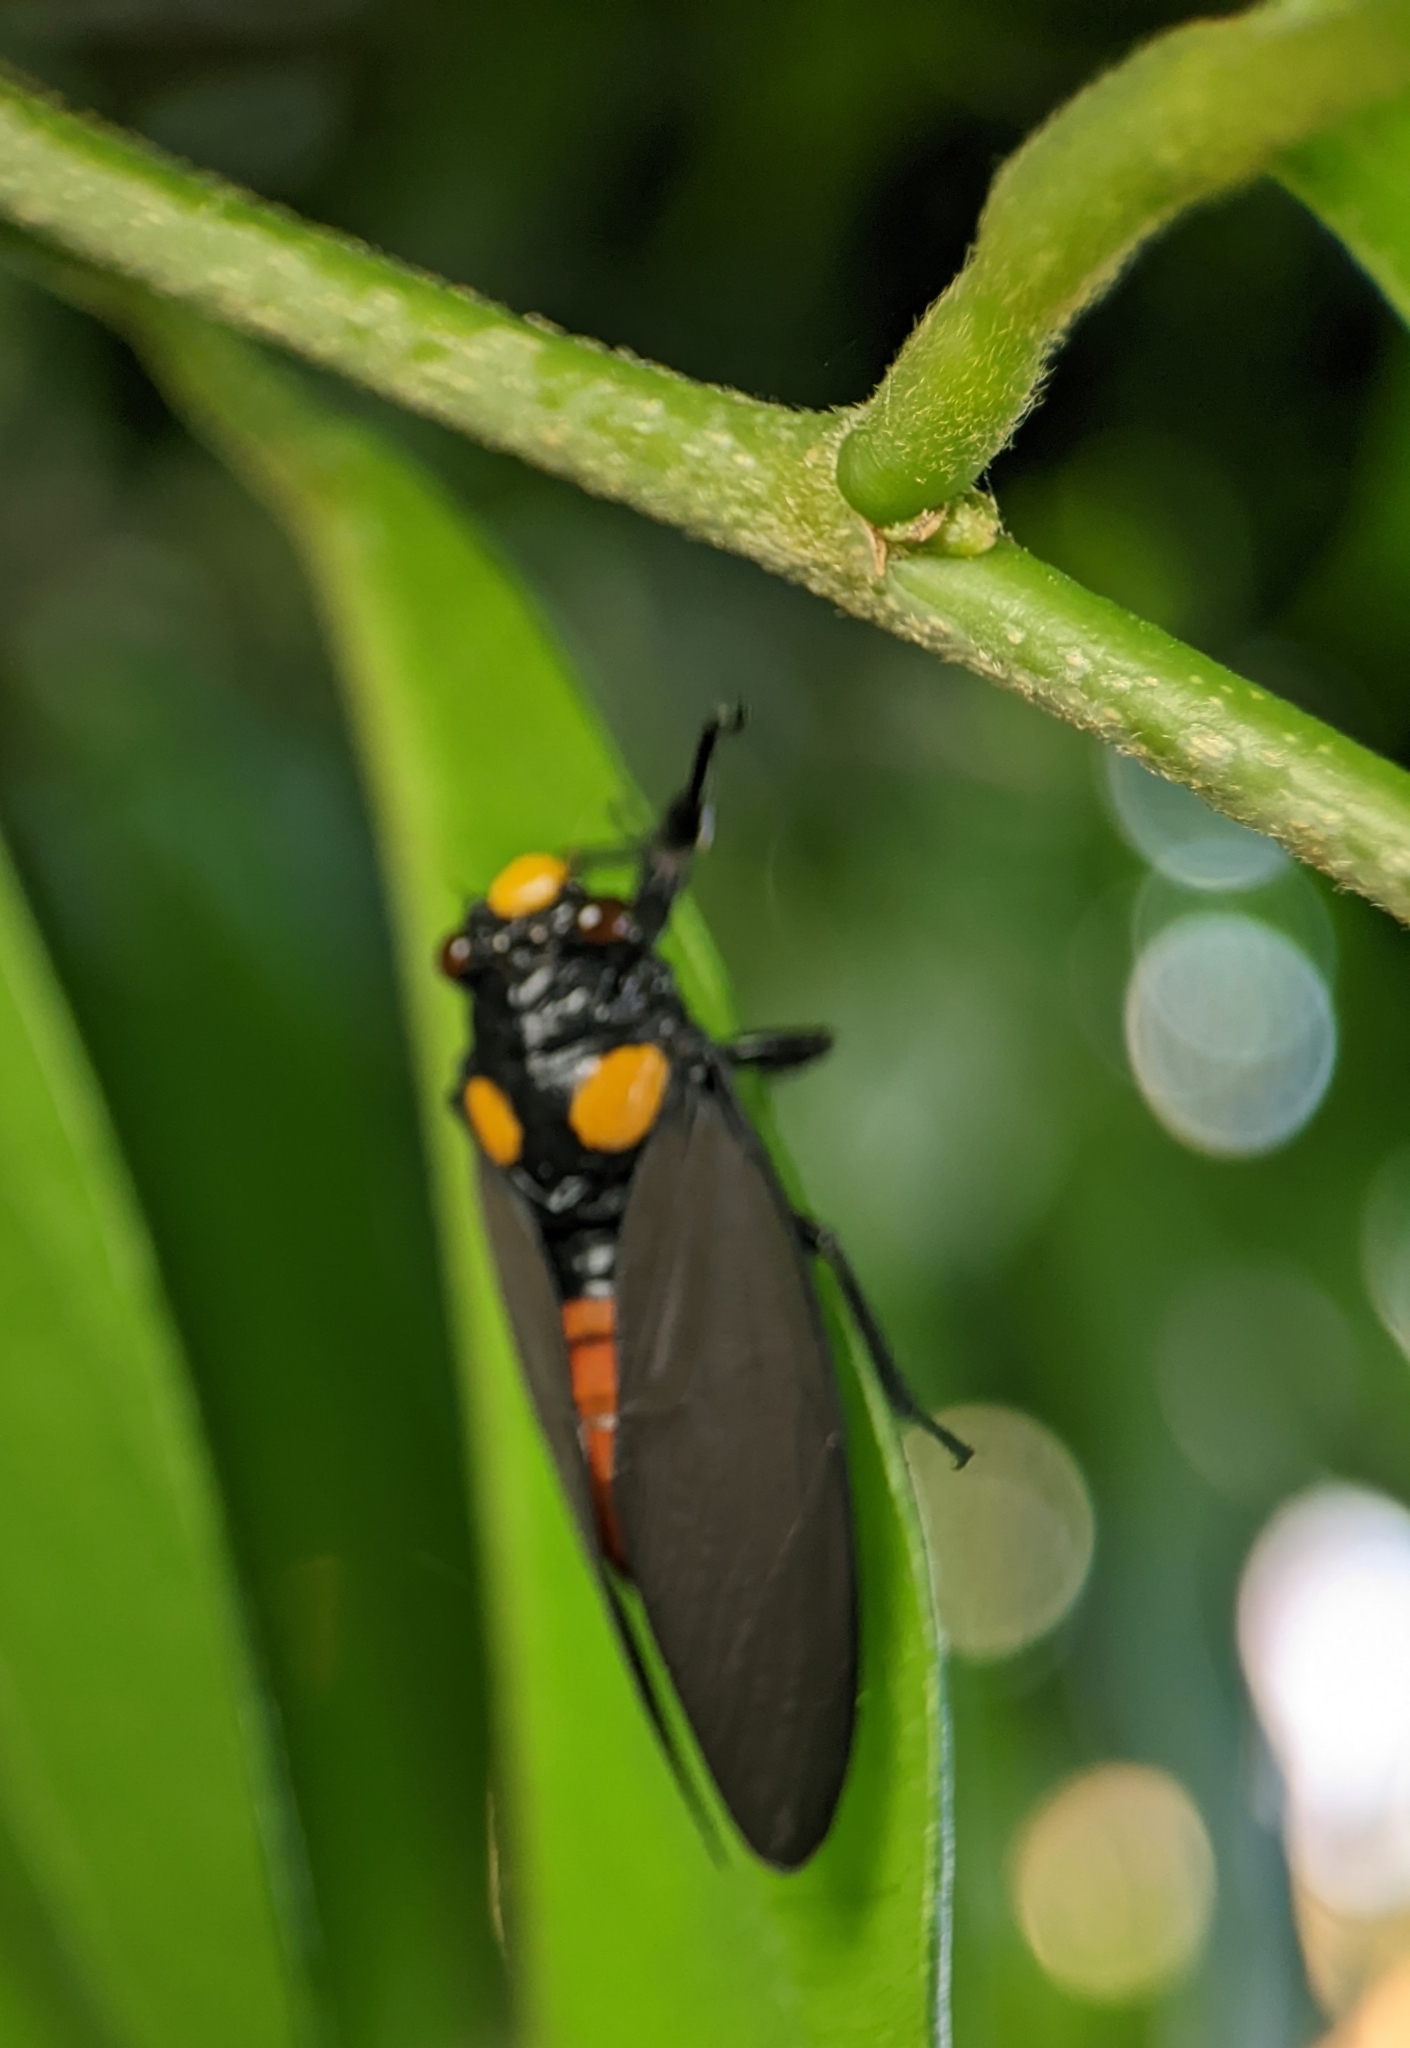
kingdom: Animalia
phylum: Arthropoda
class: Insecta
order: Hemiptera
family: Cicadidae
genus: Huechys
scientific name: Huechys fusca
